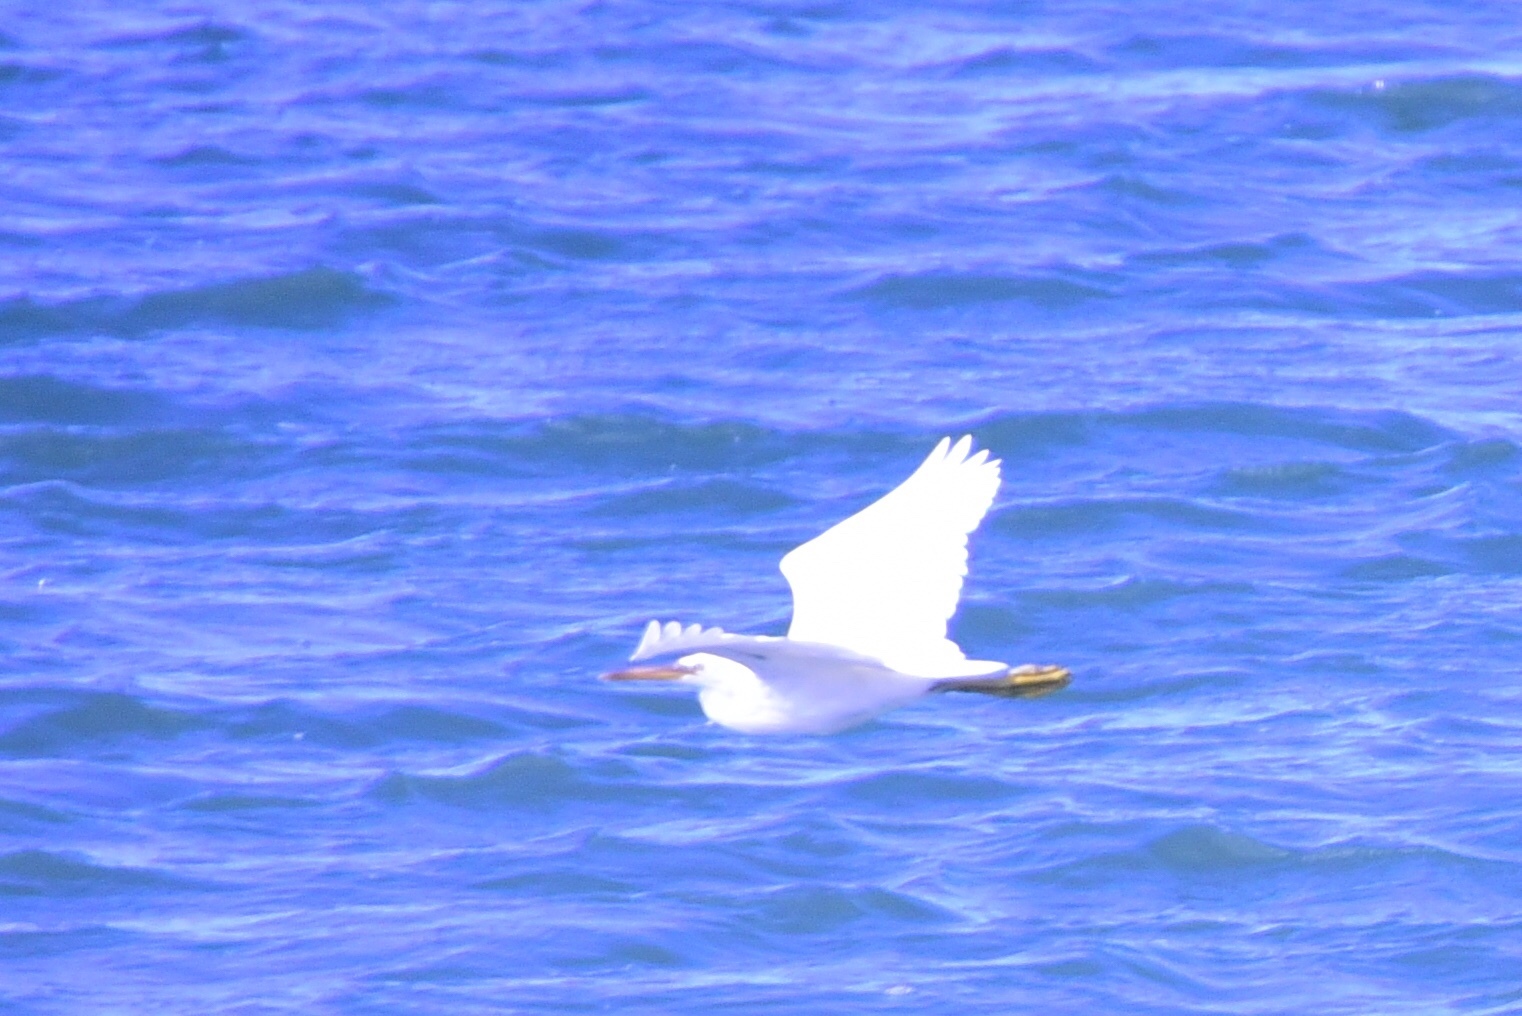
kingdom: Animalia
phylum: Chordata
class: Aves
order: Pelecaniformes
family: Ardeidae
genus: Egretta
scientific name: Egretta sacra
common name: Pacific reef heron
